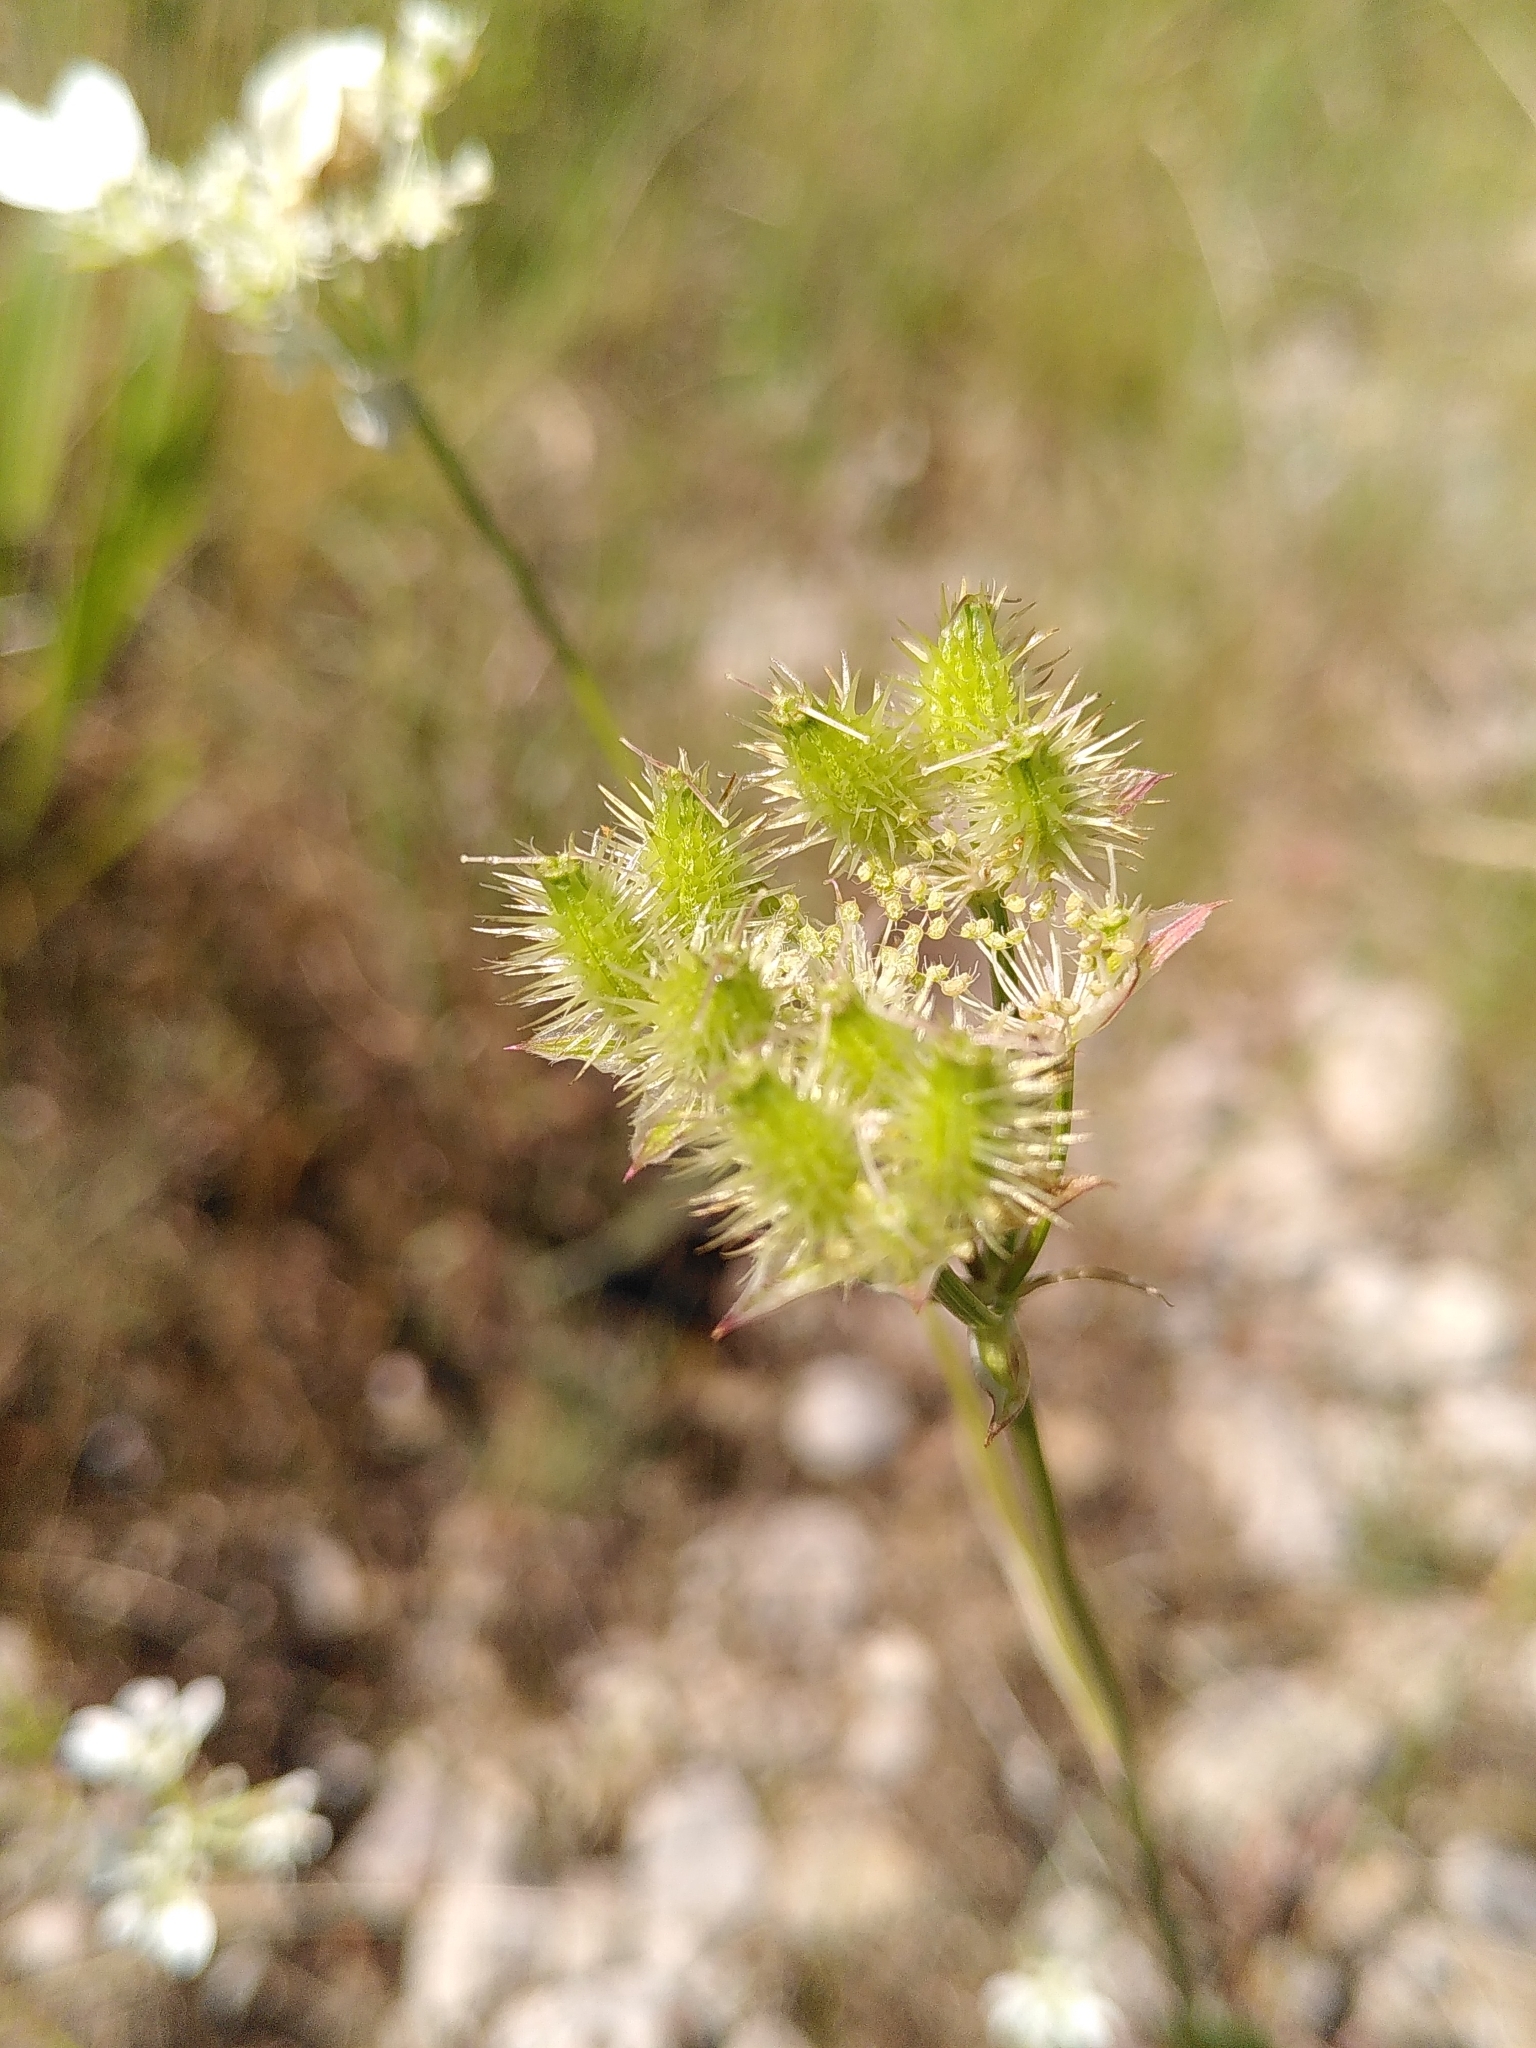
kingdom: Plantae
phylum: Tracheophyta
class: Magnoliopsida
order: Apiales
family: Apiaceae
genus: Orlaya
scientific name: Orlaya grandiflora
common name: White lace flower
